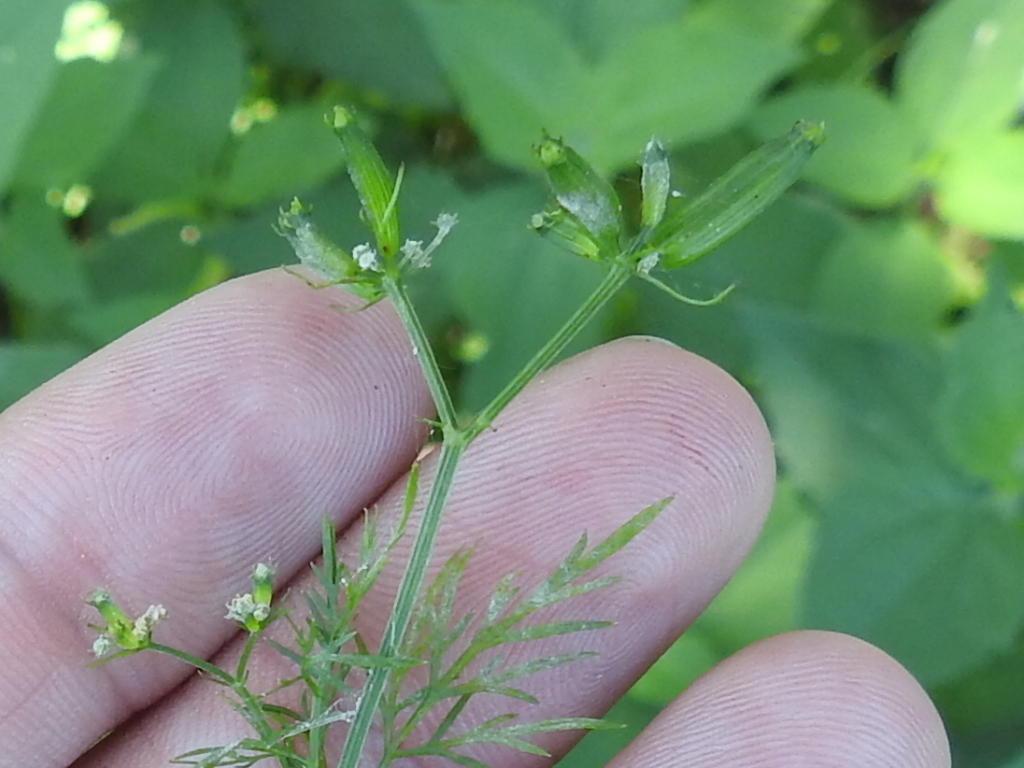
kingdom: Plantae
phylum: Tracheophyta
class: Magnoliopsida
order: Apiales
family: Apiaceae
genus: Trepocarpus
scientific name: Trepocarpus aethusae
